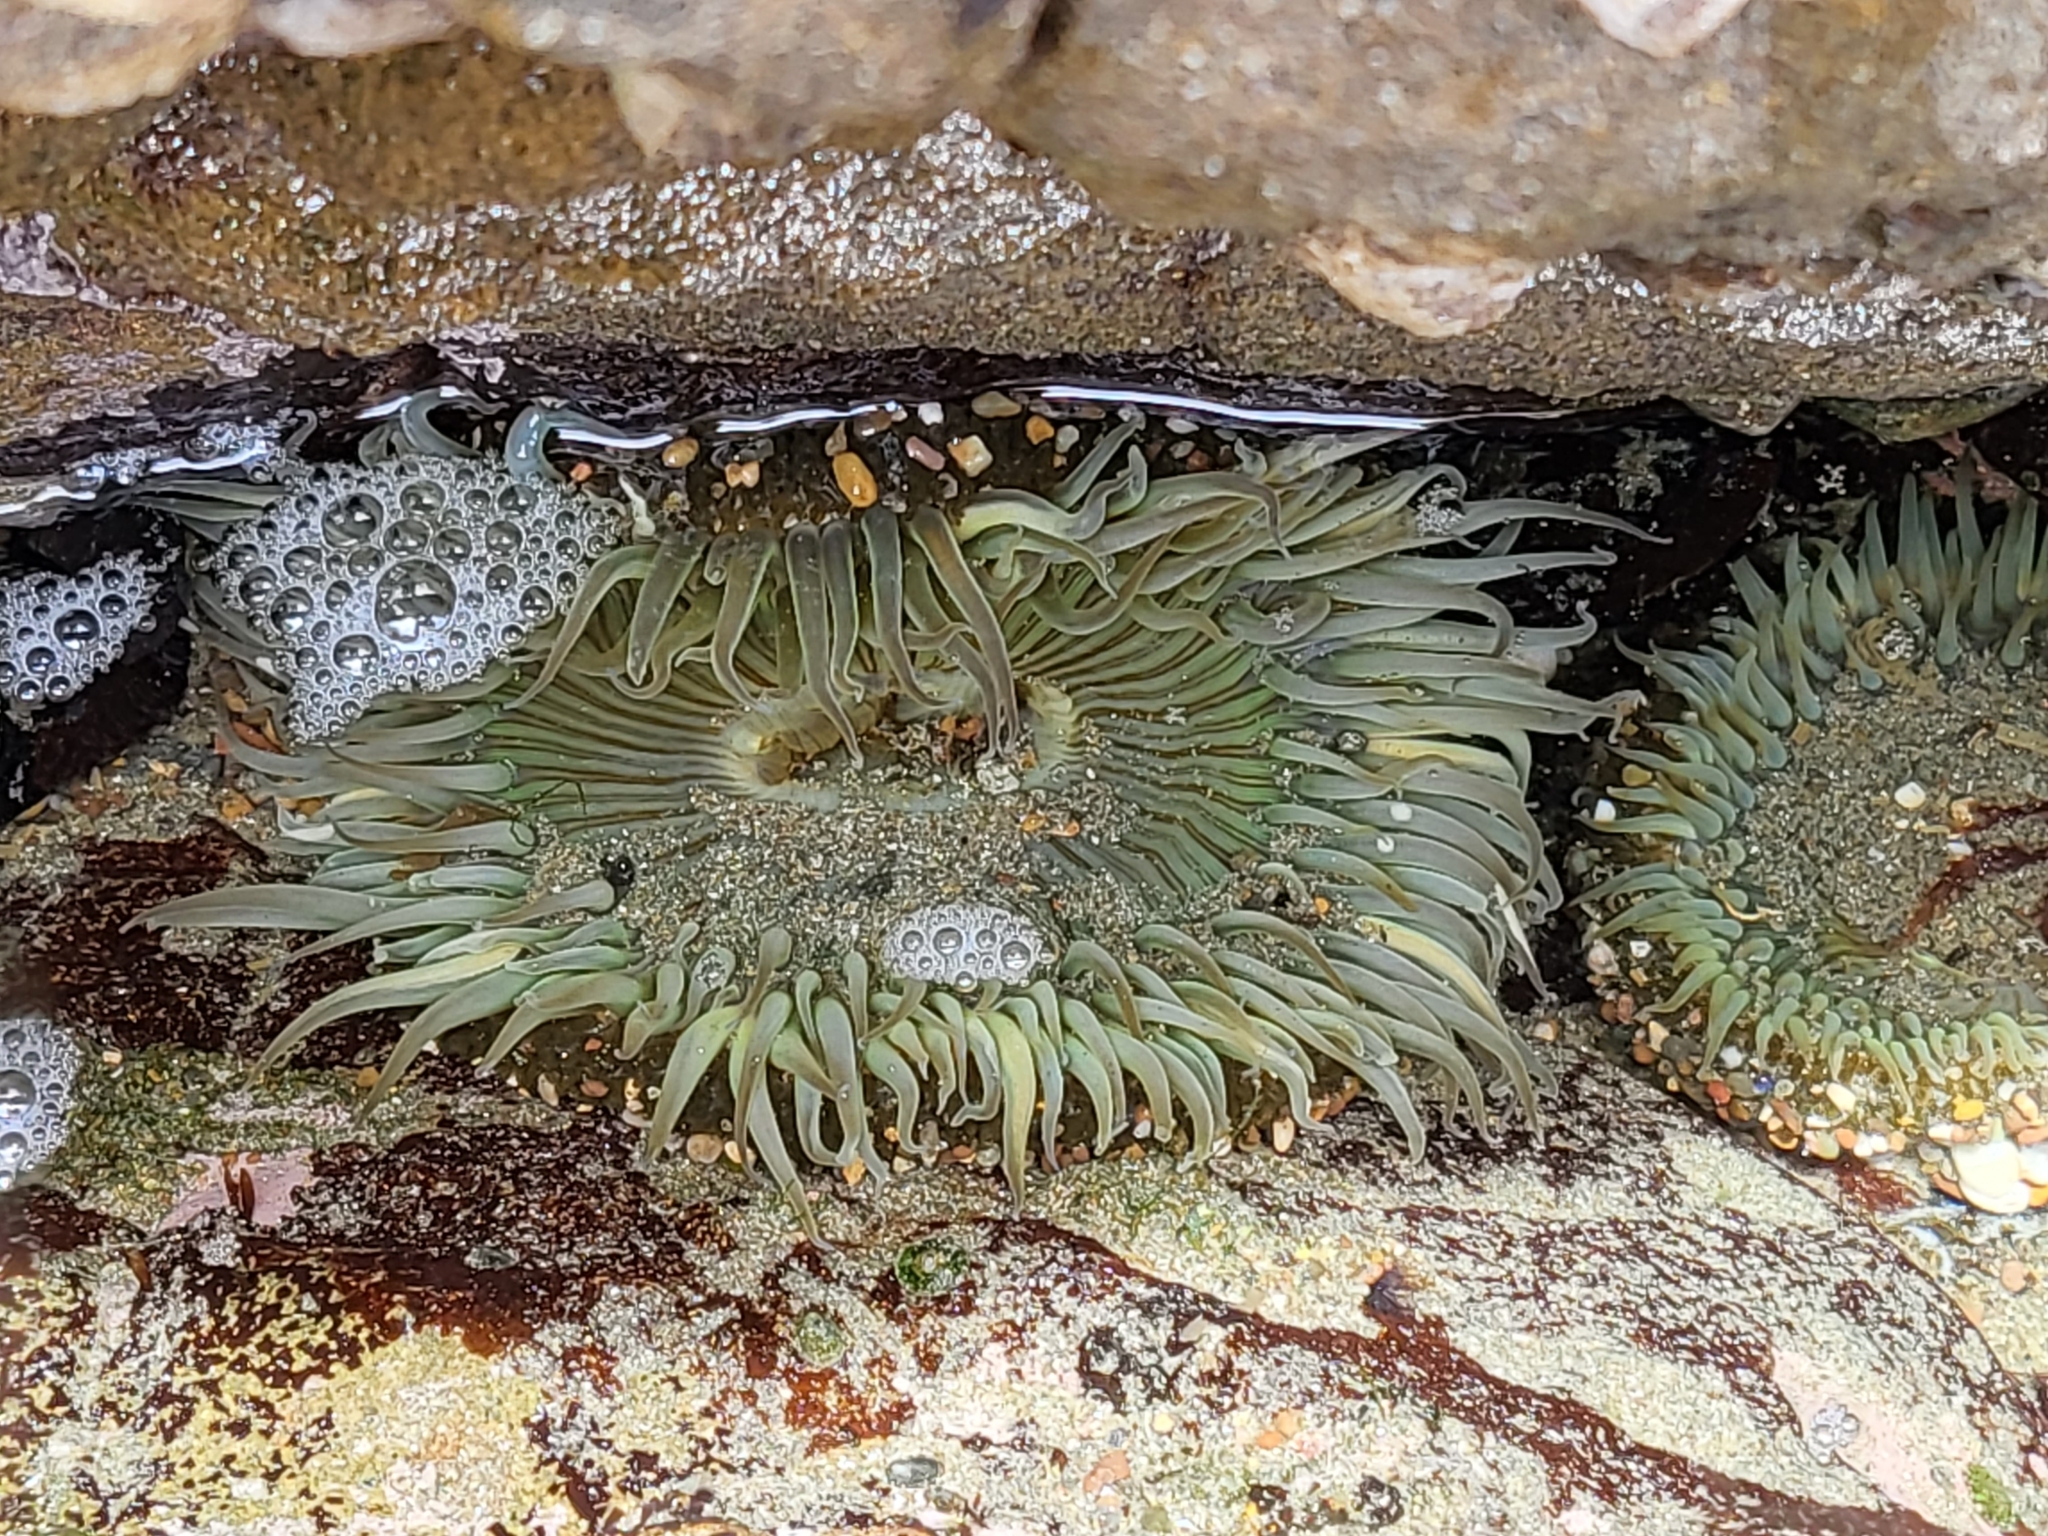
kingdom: Animalia
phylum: Cnidaria
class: Anthozoa
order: Actiniaria
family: Actiniidae
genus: Anthopleura
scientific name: Anthopleura sola
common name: Sun anemone
